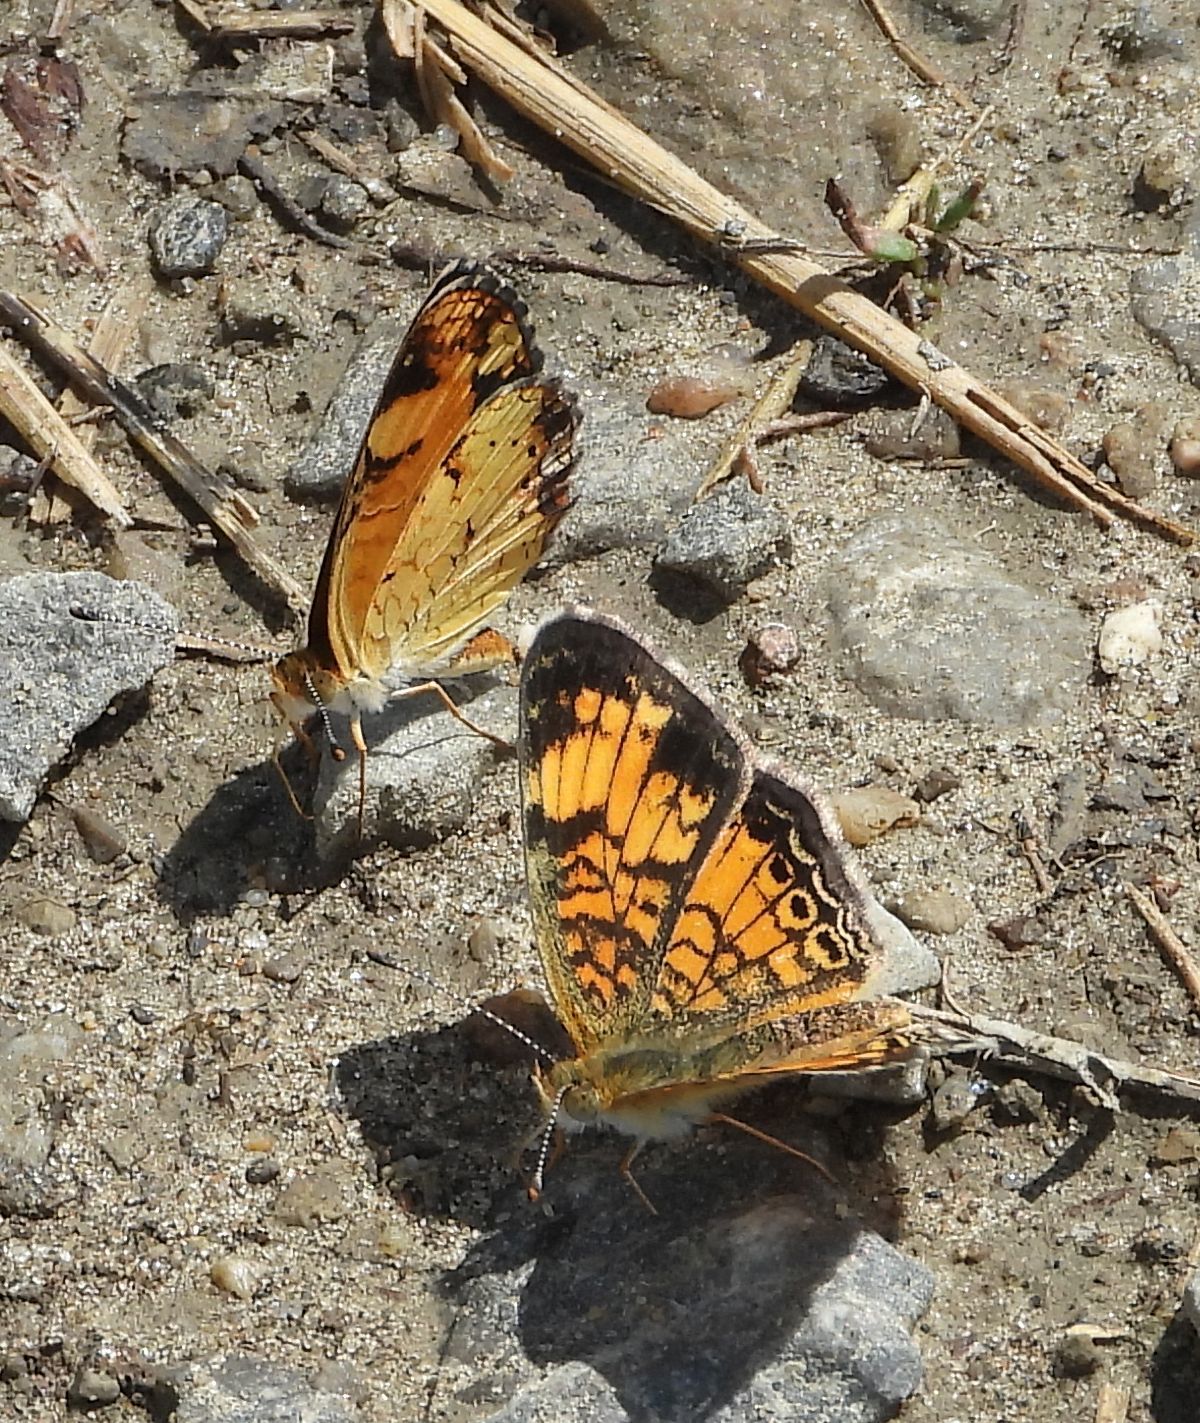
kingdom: Animalia
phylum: Arthropoda
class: Insecta
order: Lepidoptera
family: Nymphalidae
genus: Phyciodes
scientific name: Phyciodes tharos
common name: Pearl crescent
